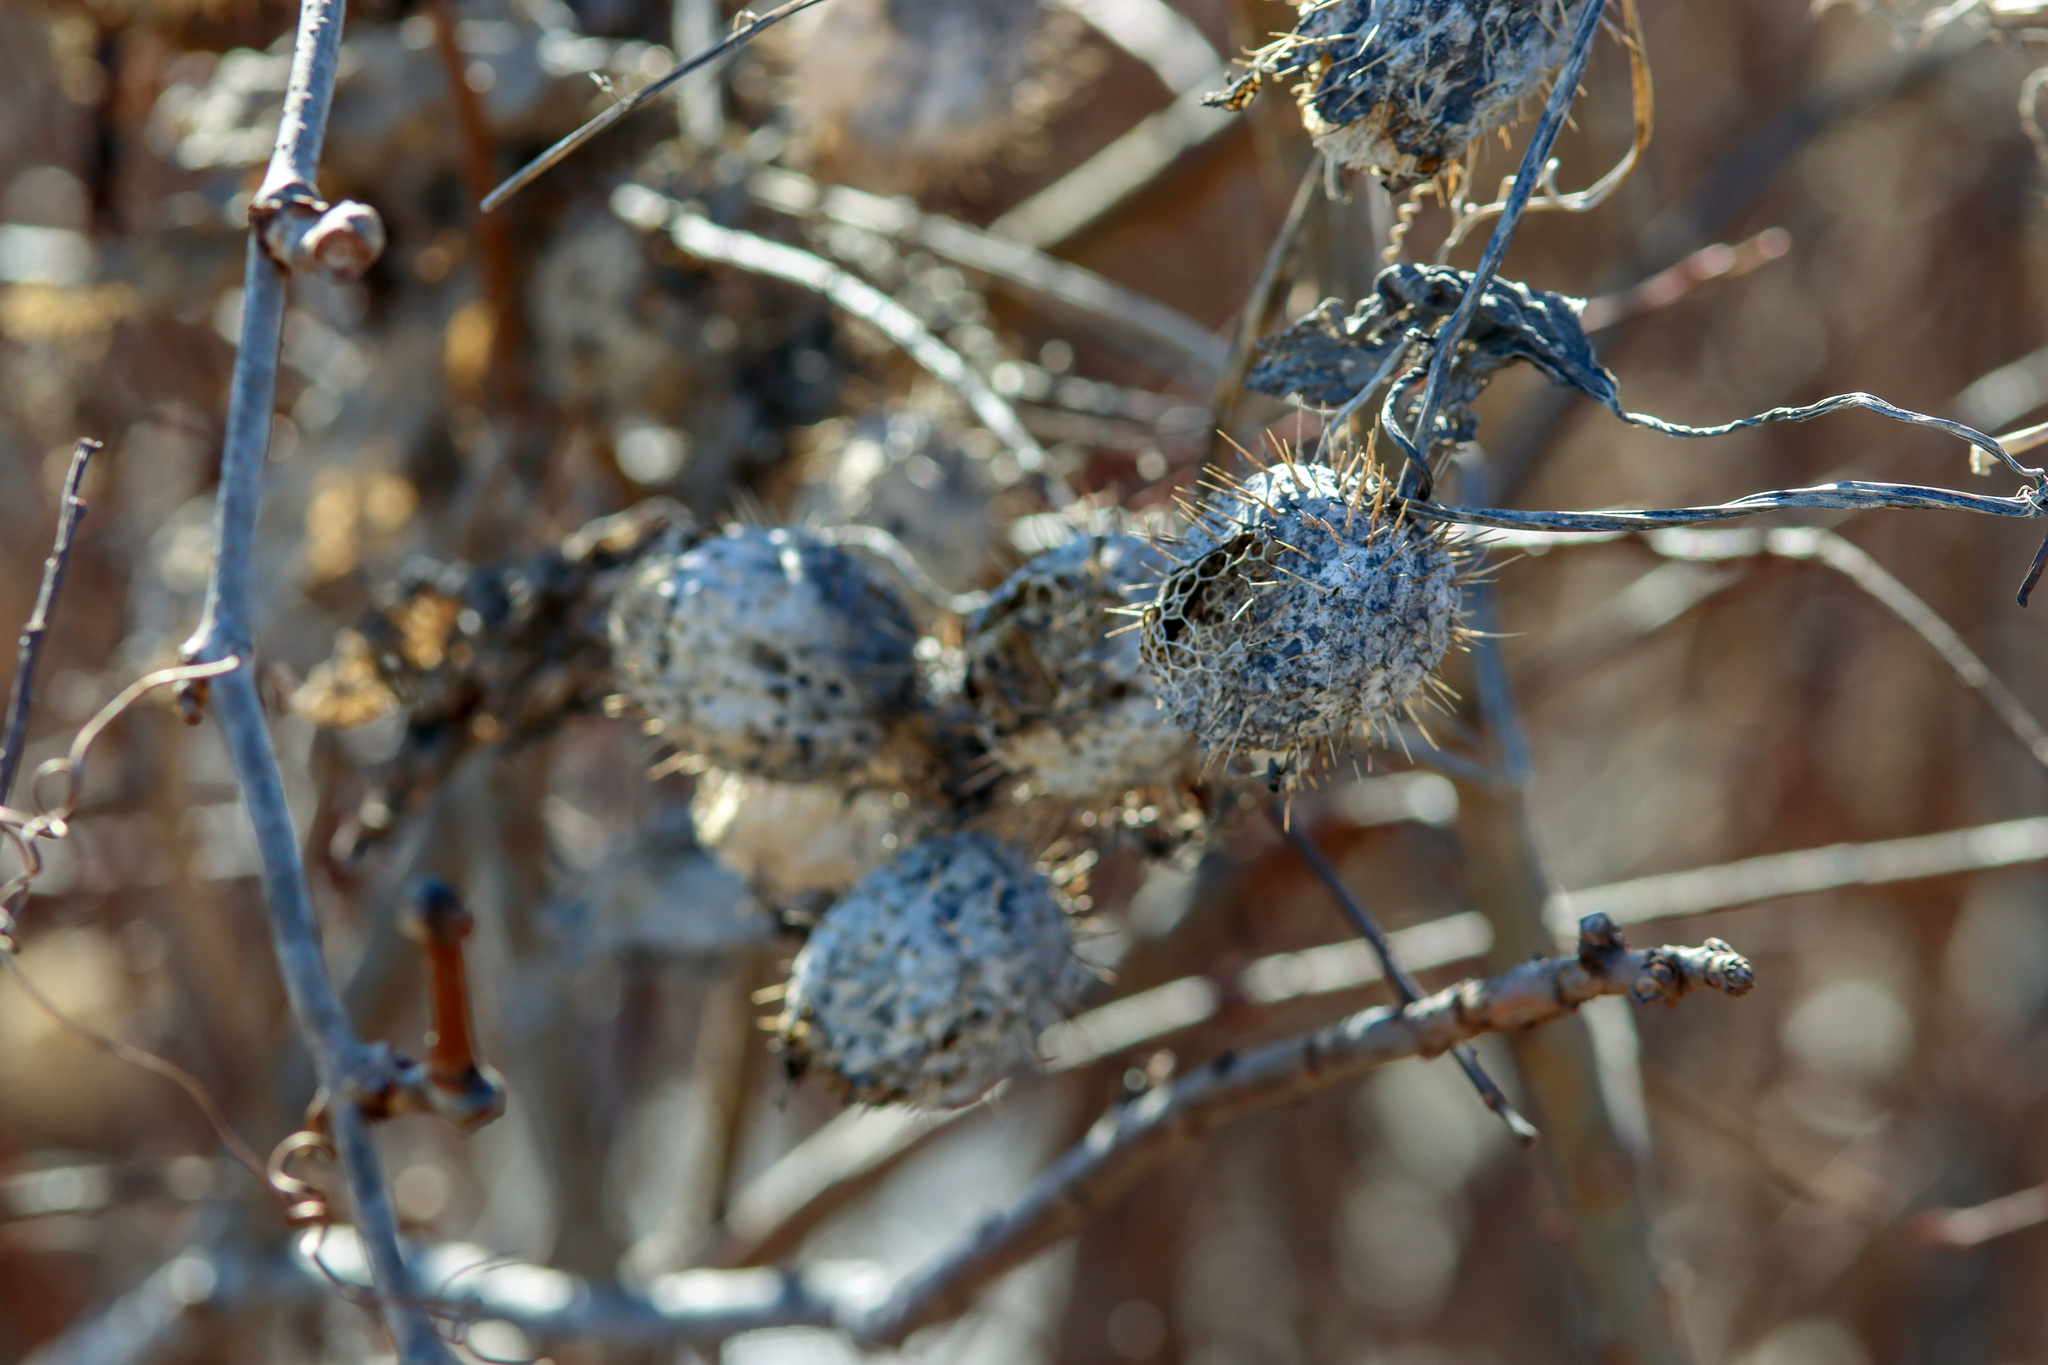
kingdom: Plantae
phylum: Tracheophyta
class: Magnoliopsida
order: Cucurbitales
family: Cucurbitaceae
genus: Echinocystis
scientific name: Echinocystis lobata
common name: Wild cucumber
